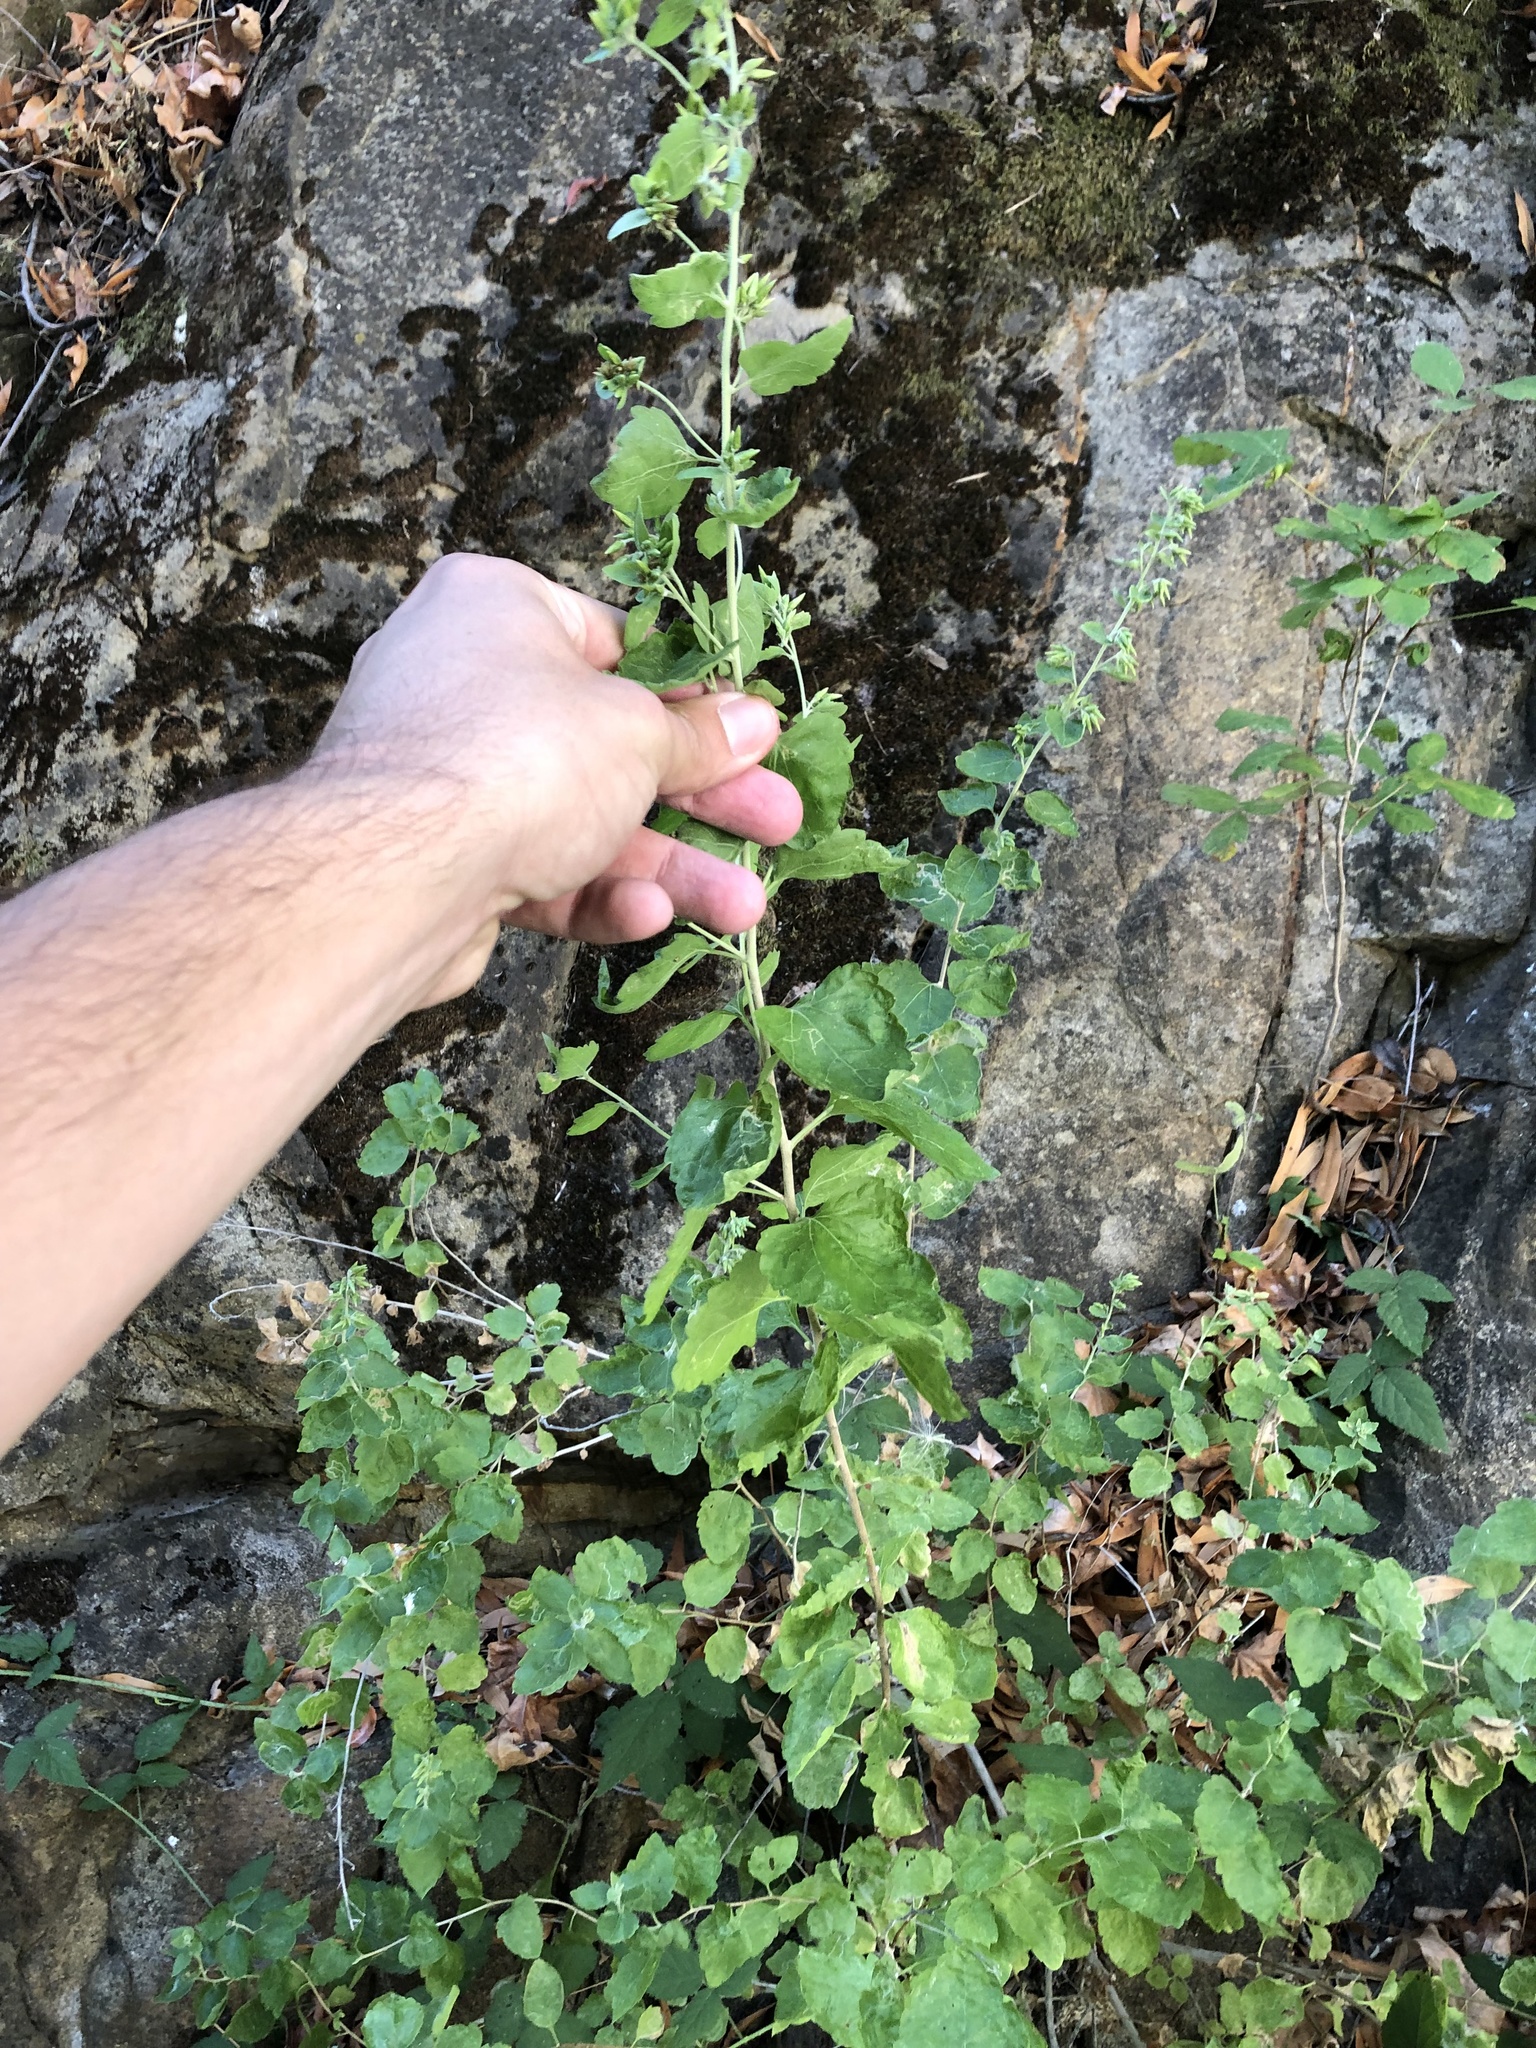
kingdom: Plantae
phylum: Tracheophyta
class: Magnoliopsida
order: Asterales
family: Asteraceae
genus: Brickellia
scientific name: Brickellia californica
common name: California brickellbush
